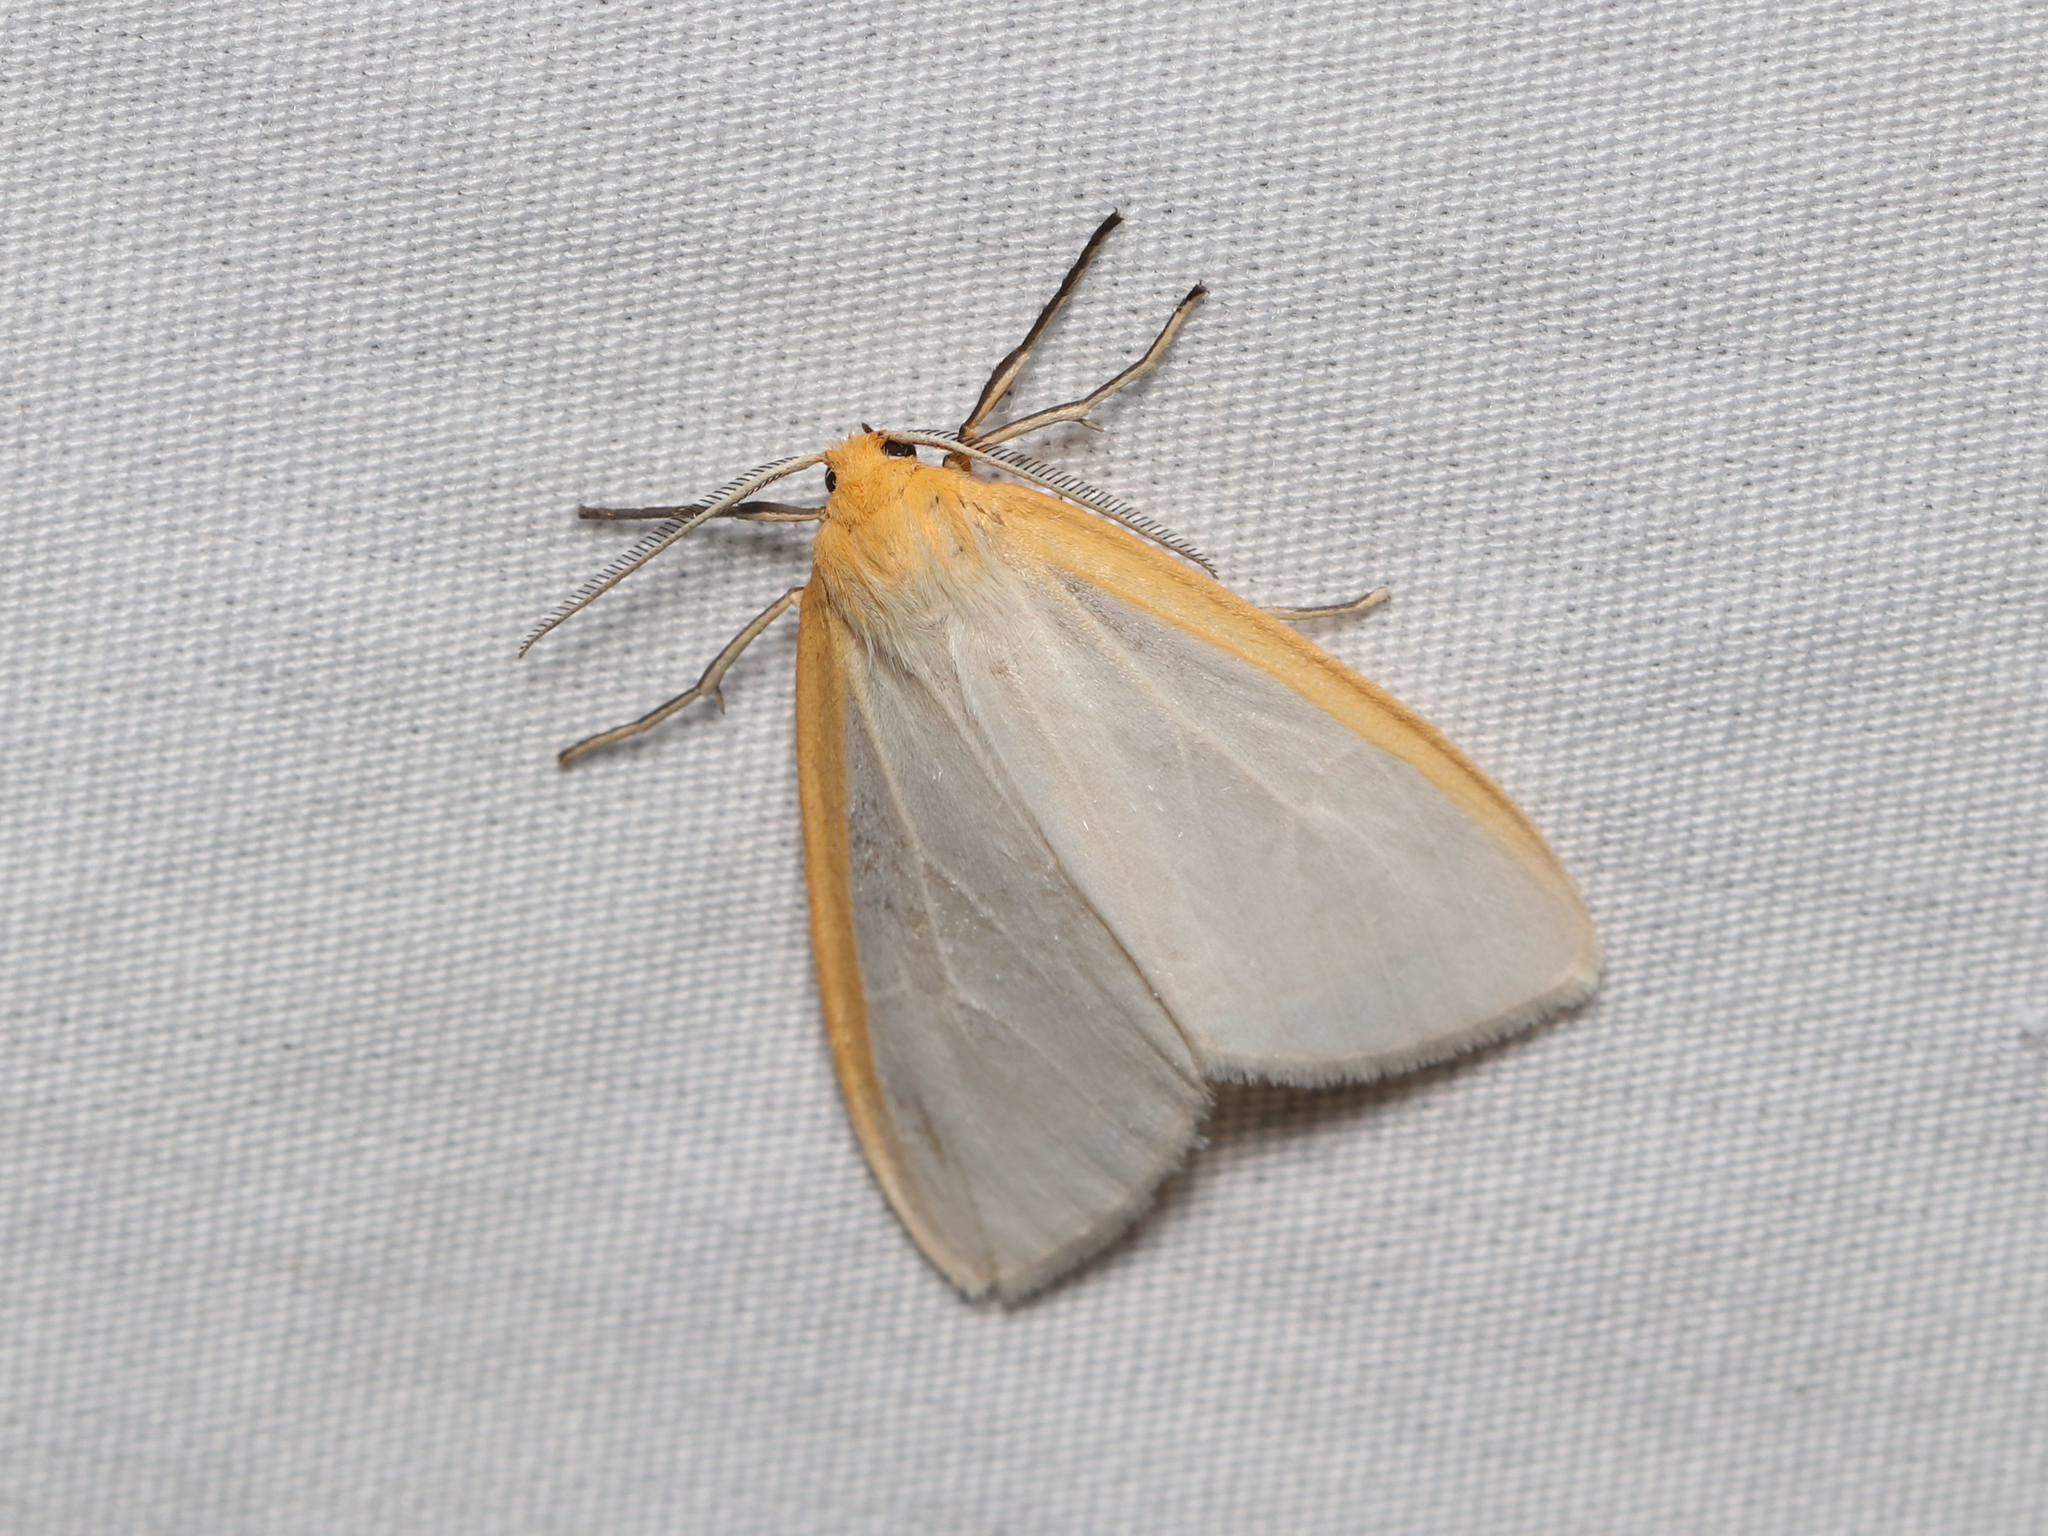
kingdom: Animalia
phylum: Arthropoda
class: Insecta
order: Lepidoptera
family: Erebidae
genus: Cycnia
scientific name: Cycnia tenera
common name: Delicate cycnia moth
